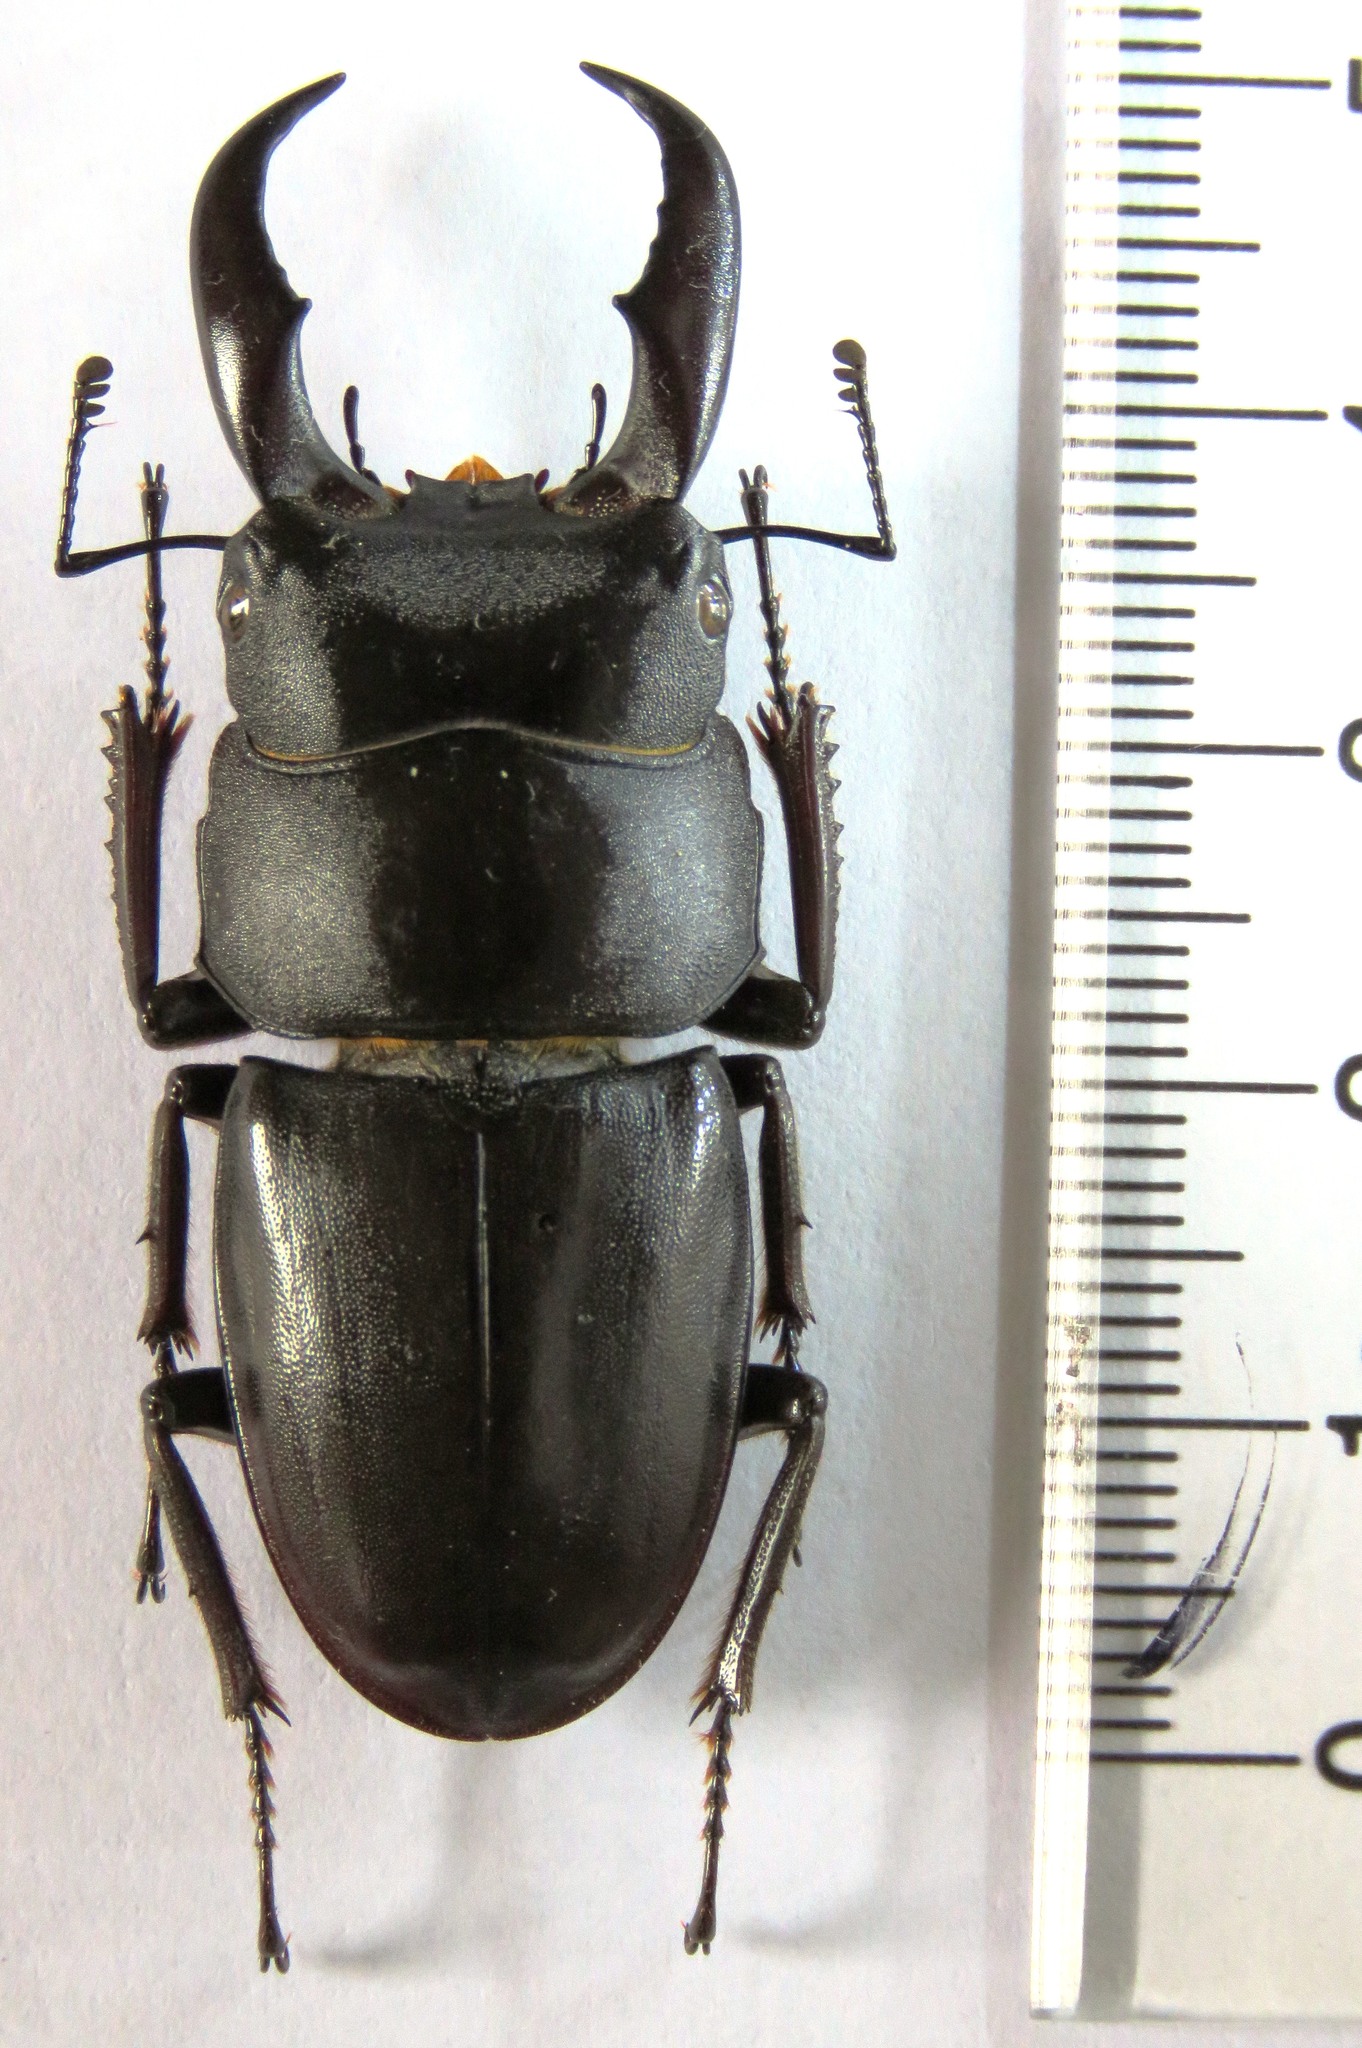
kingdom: Animalia
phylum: Arthropoda
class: Insecta
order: Coleoptera
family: Lucanidae
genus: Serrognathus
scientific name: Serrognathus titanus
